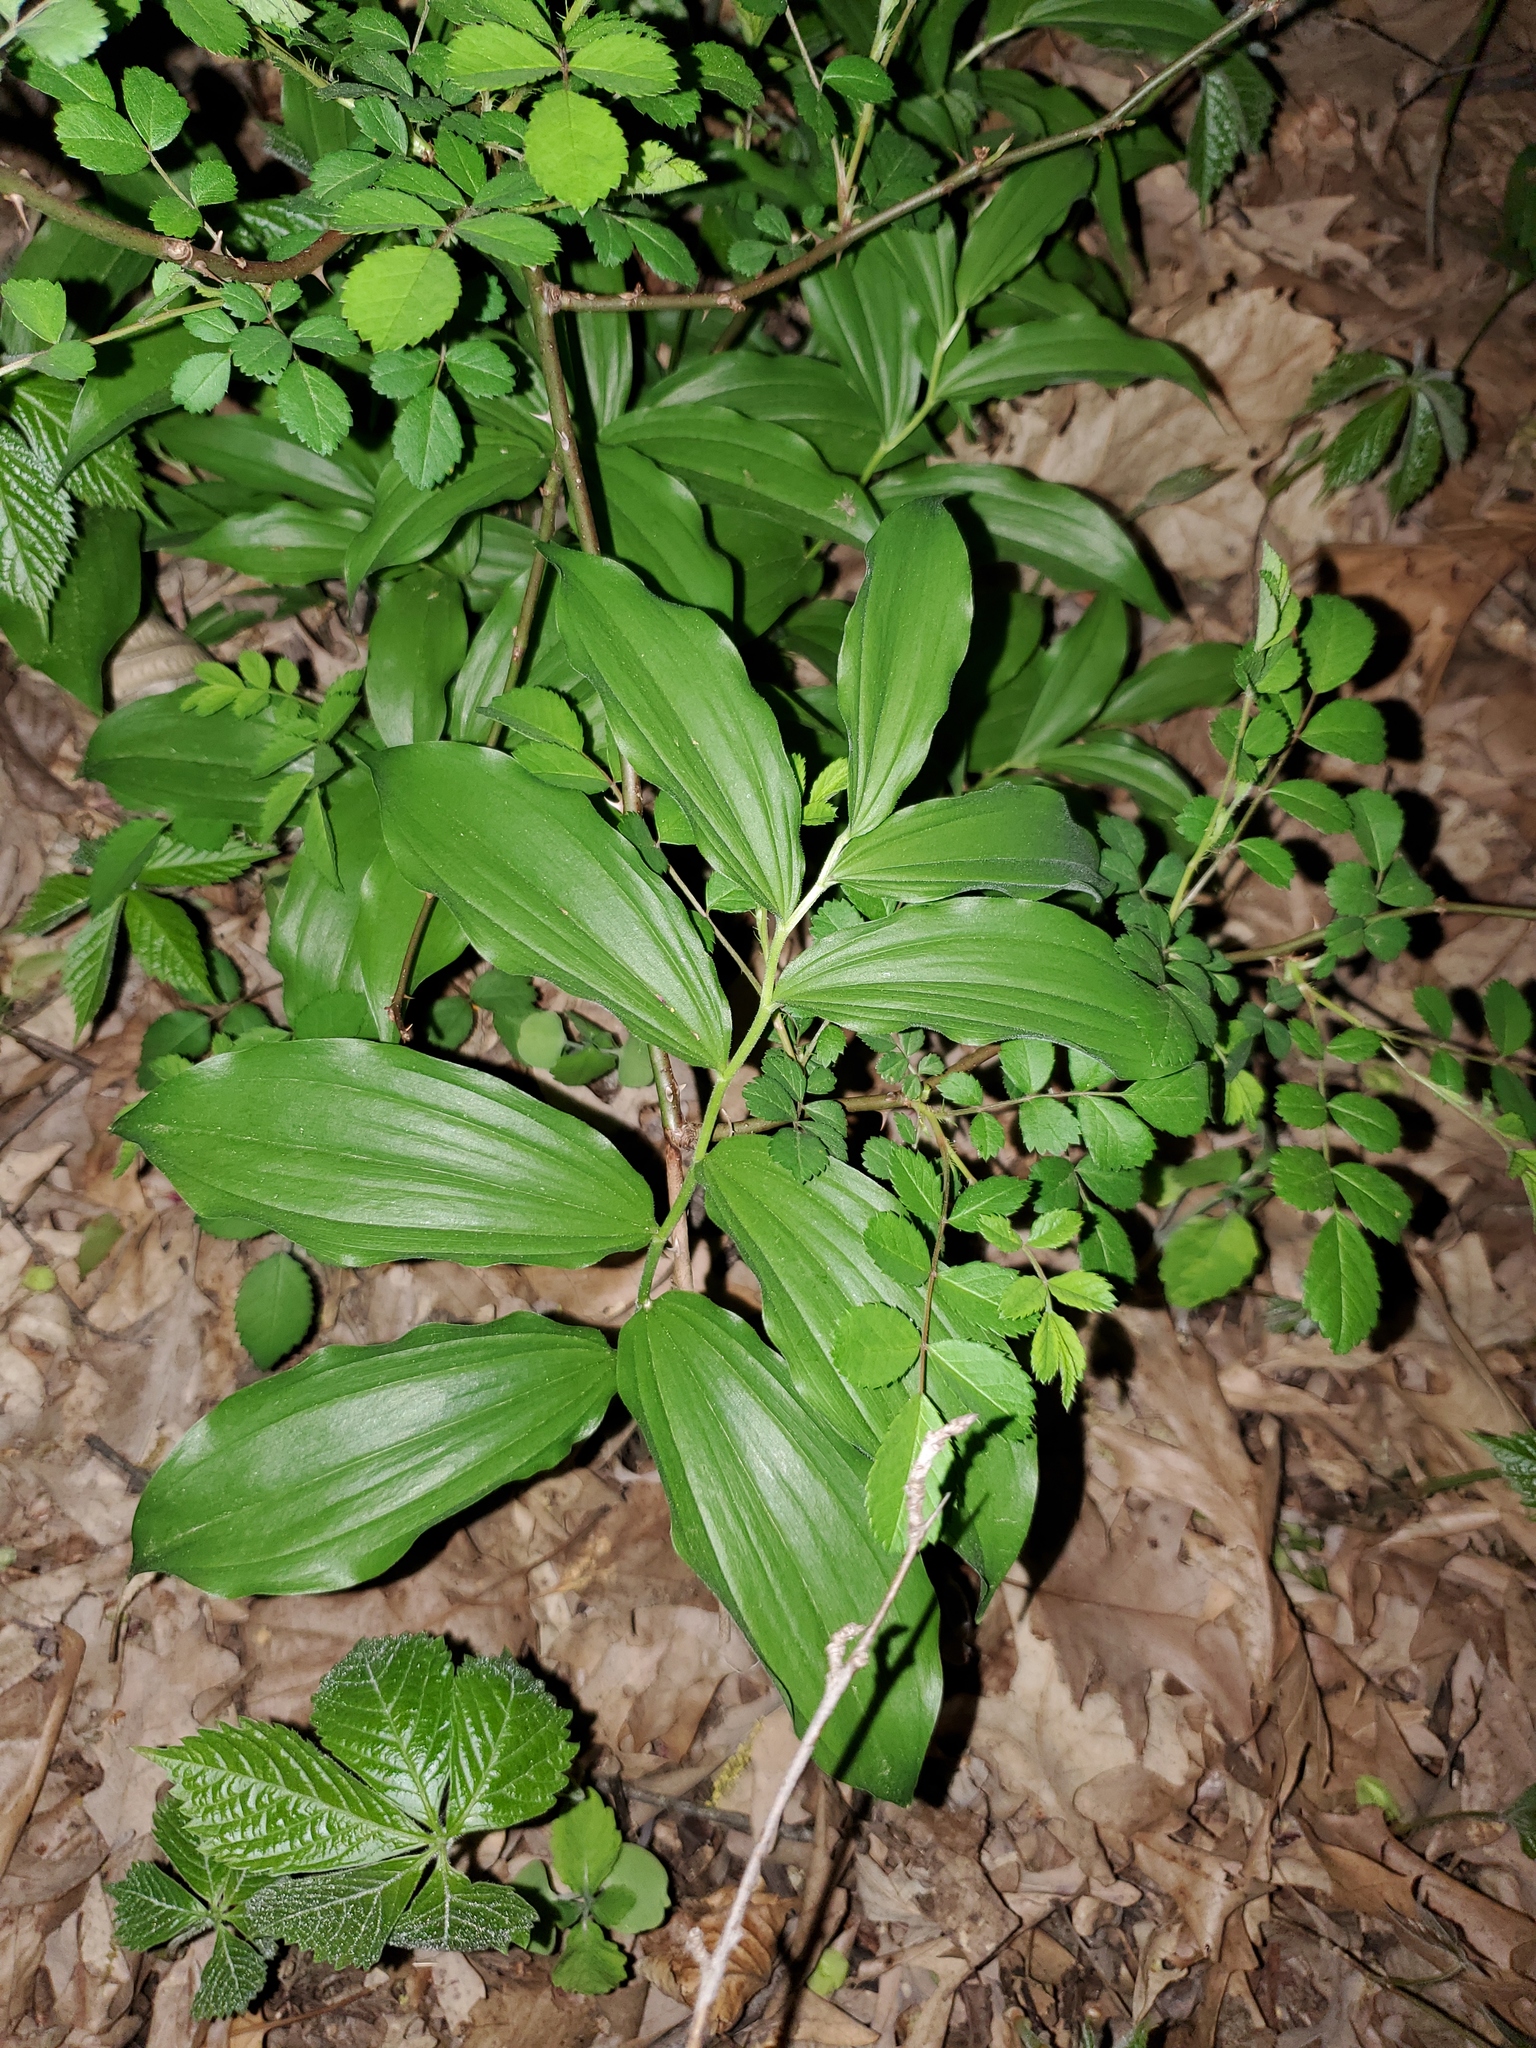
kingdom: Plantae
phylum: Tracheophyta
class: Liliopsida
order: Asparagales
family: Asparagaceae
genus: Maianthemum
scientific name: Maianthemum racemosum
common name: False spikenard
